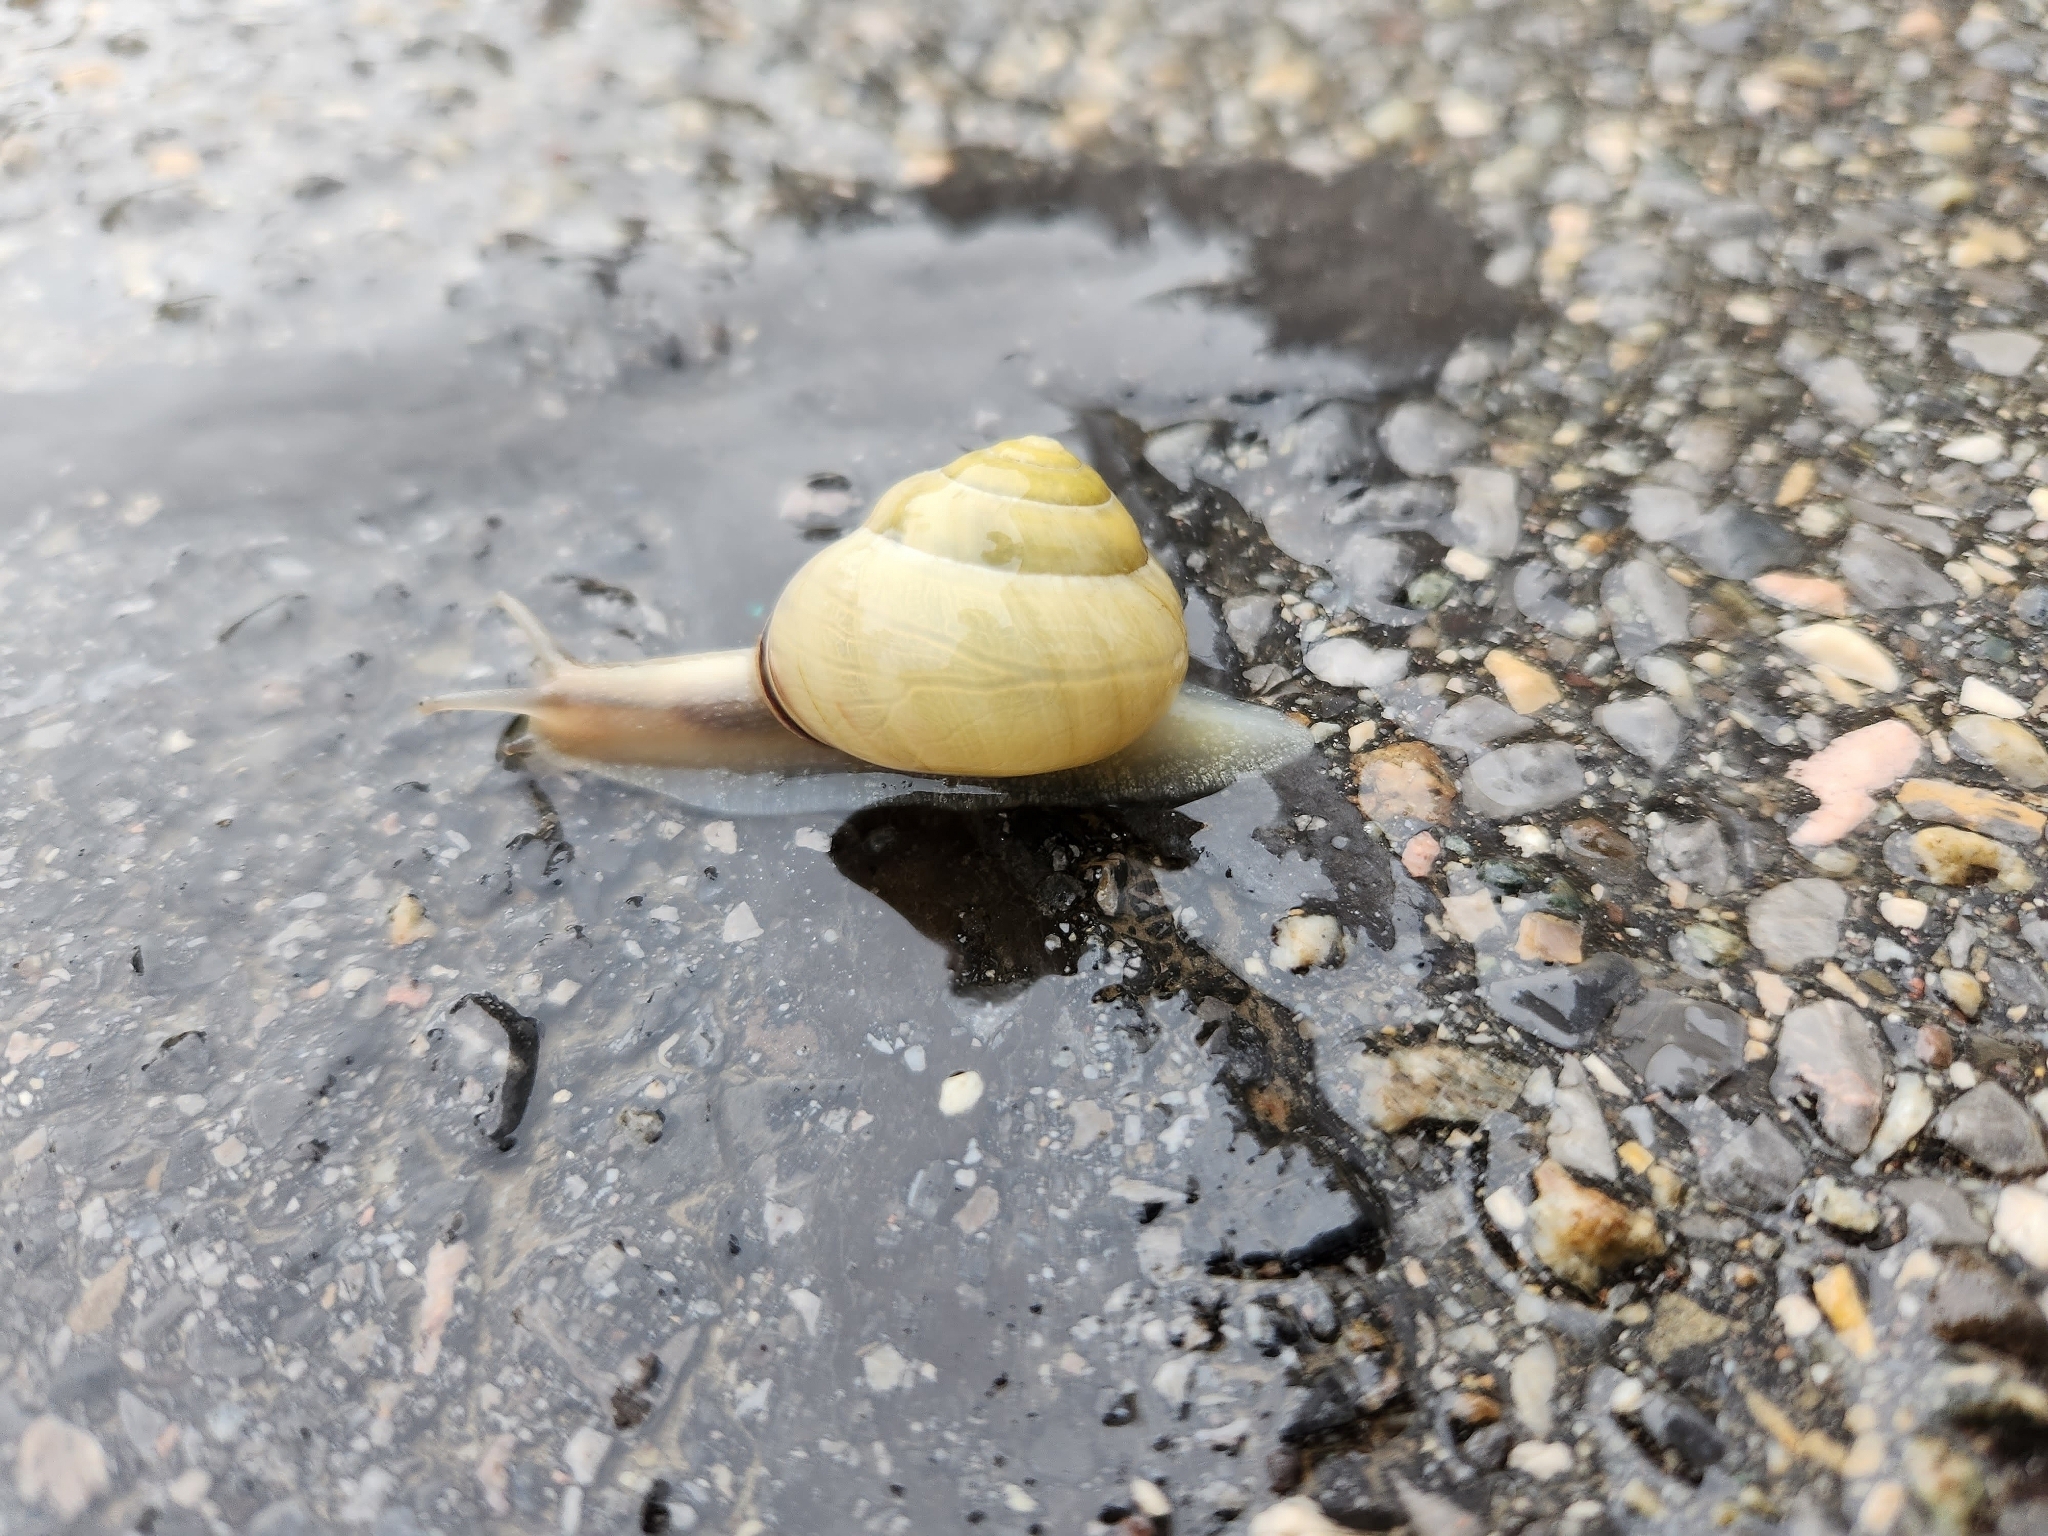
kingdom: Animalia
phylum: Mollusca
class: Gastropoda
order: Stylommatophora
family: Helicidae
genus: Cepaea
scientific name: Cepaea nemoralis
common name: Grovesnail
